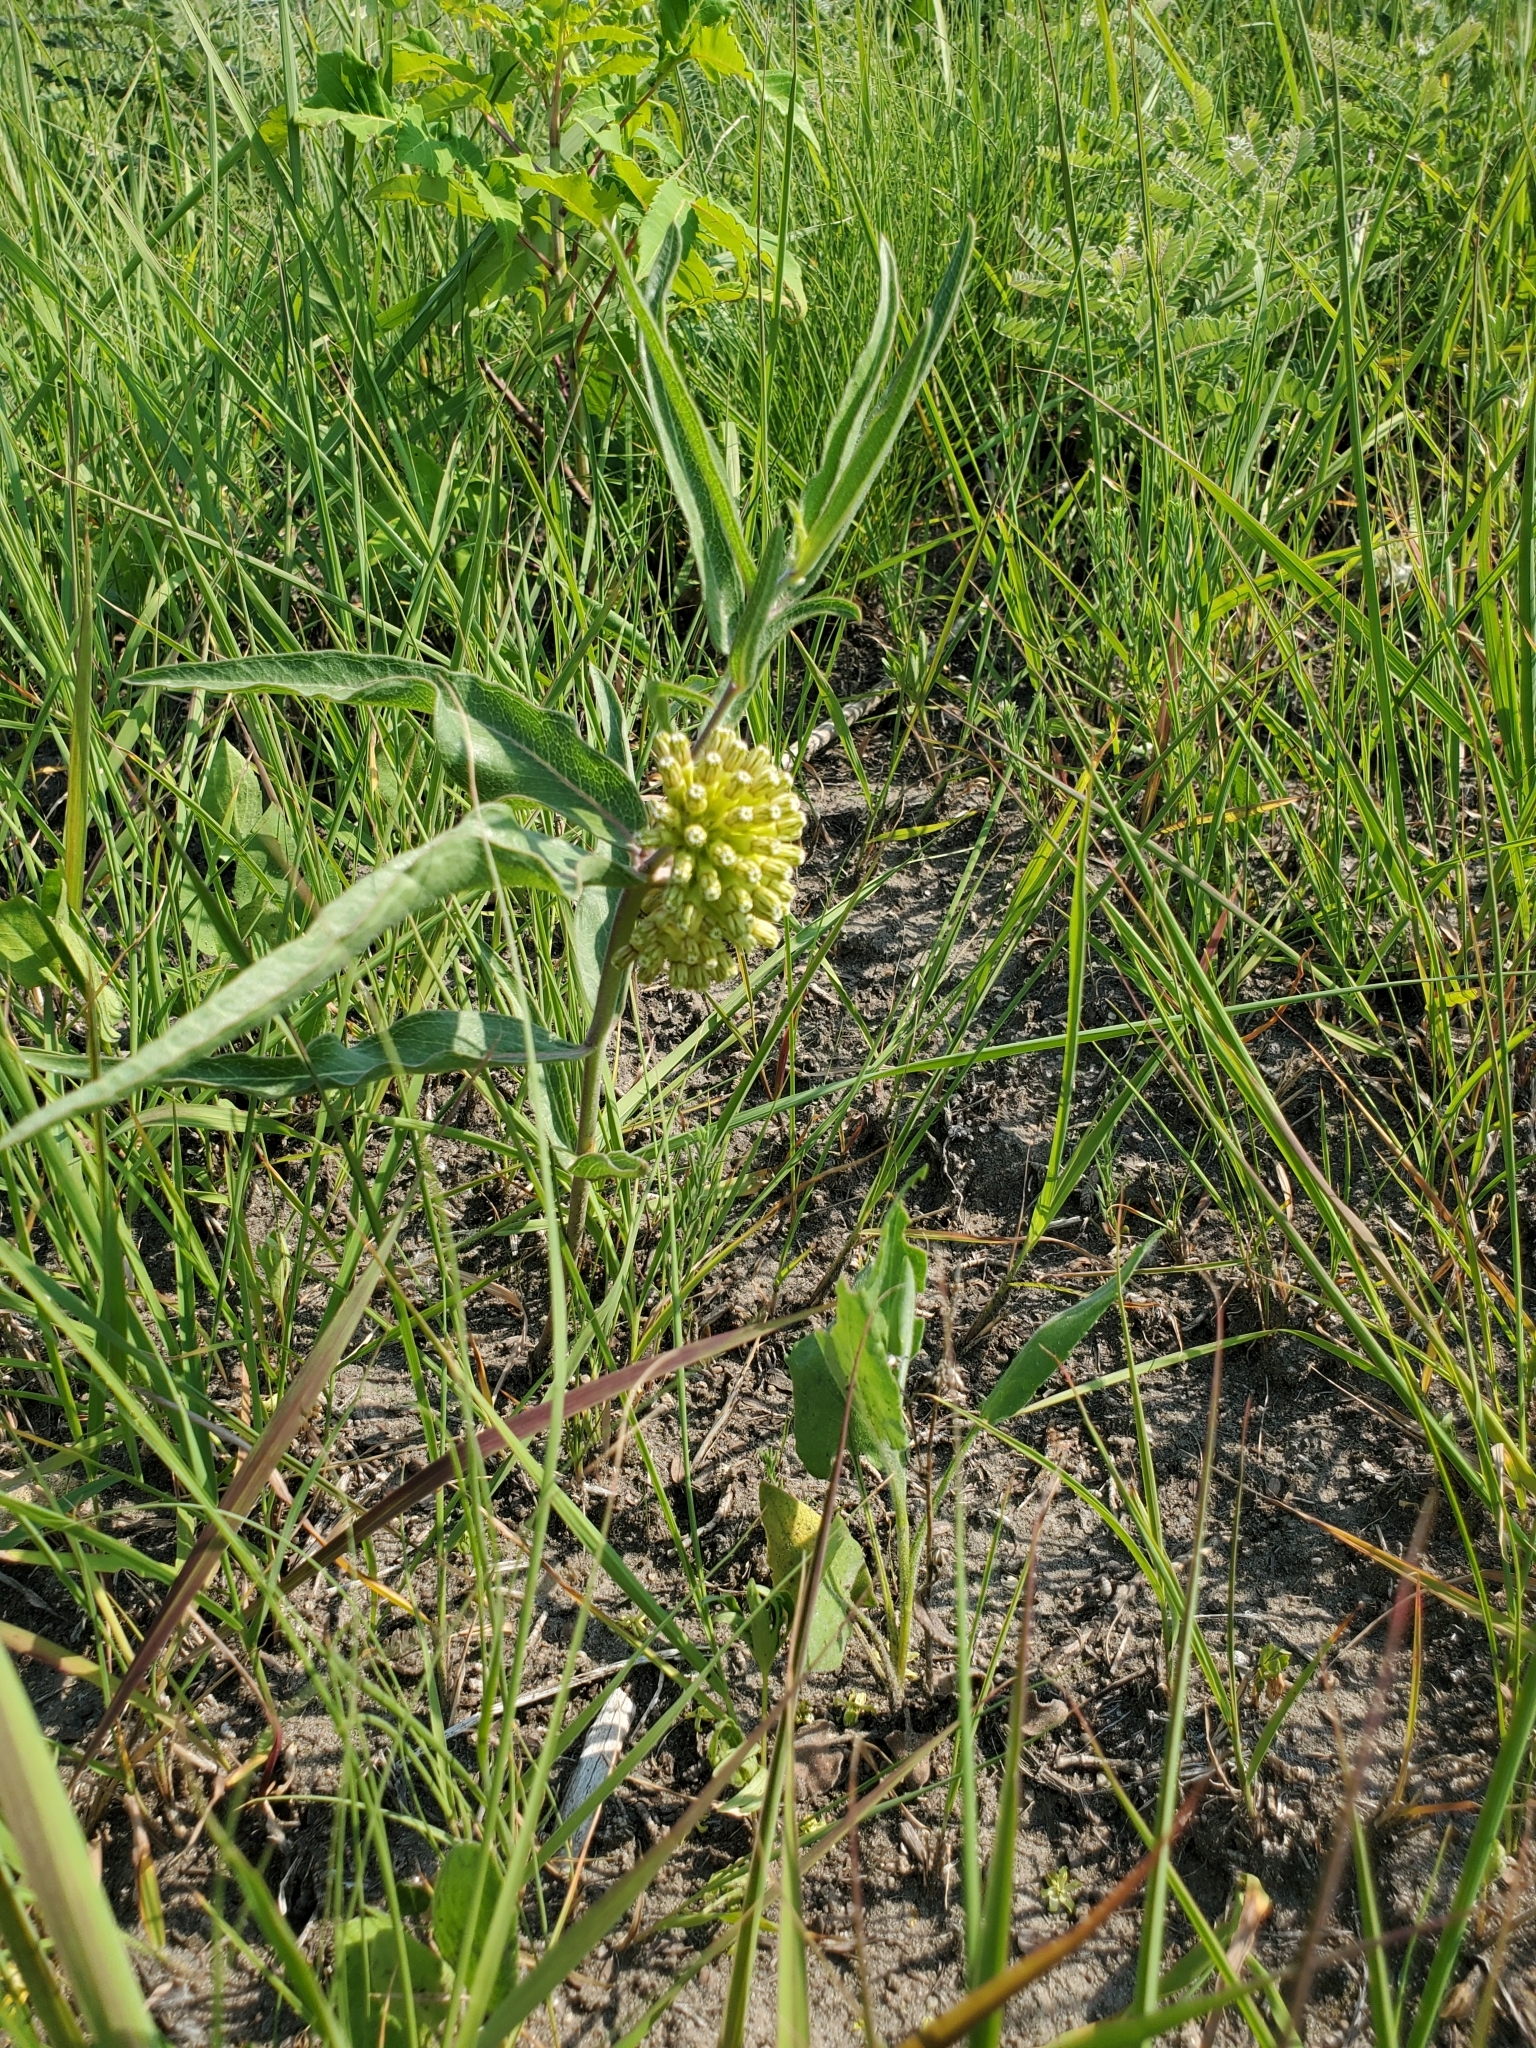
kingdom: Plantae
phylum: Tracheophyta
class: Magnoliopsida
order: Gentianales
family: Apocynaceae
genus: Asclepias
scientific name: Asclepias viridiflora
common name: Green comet milkweed
